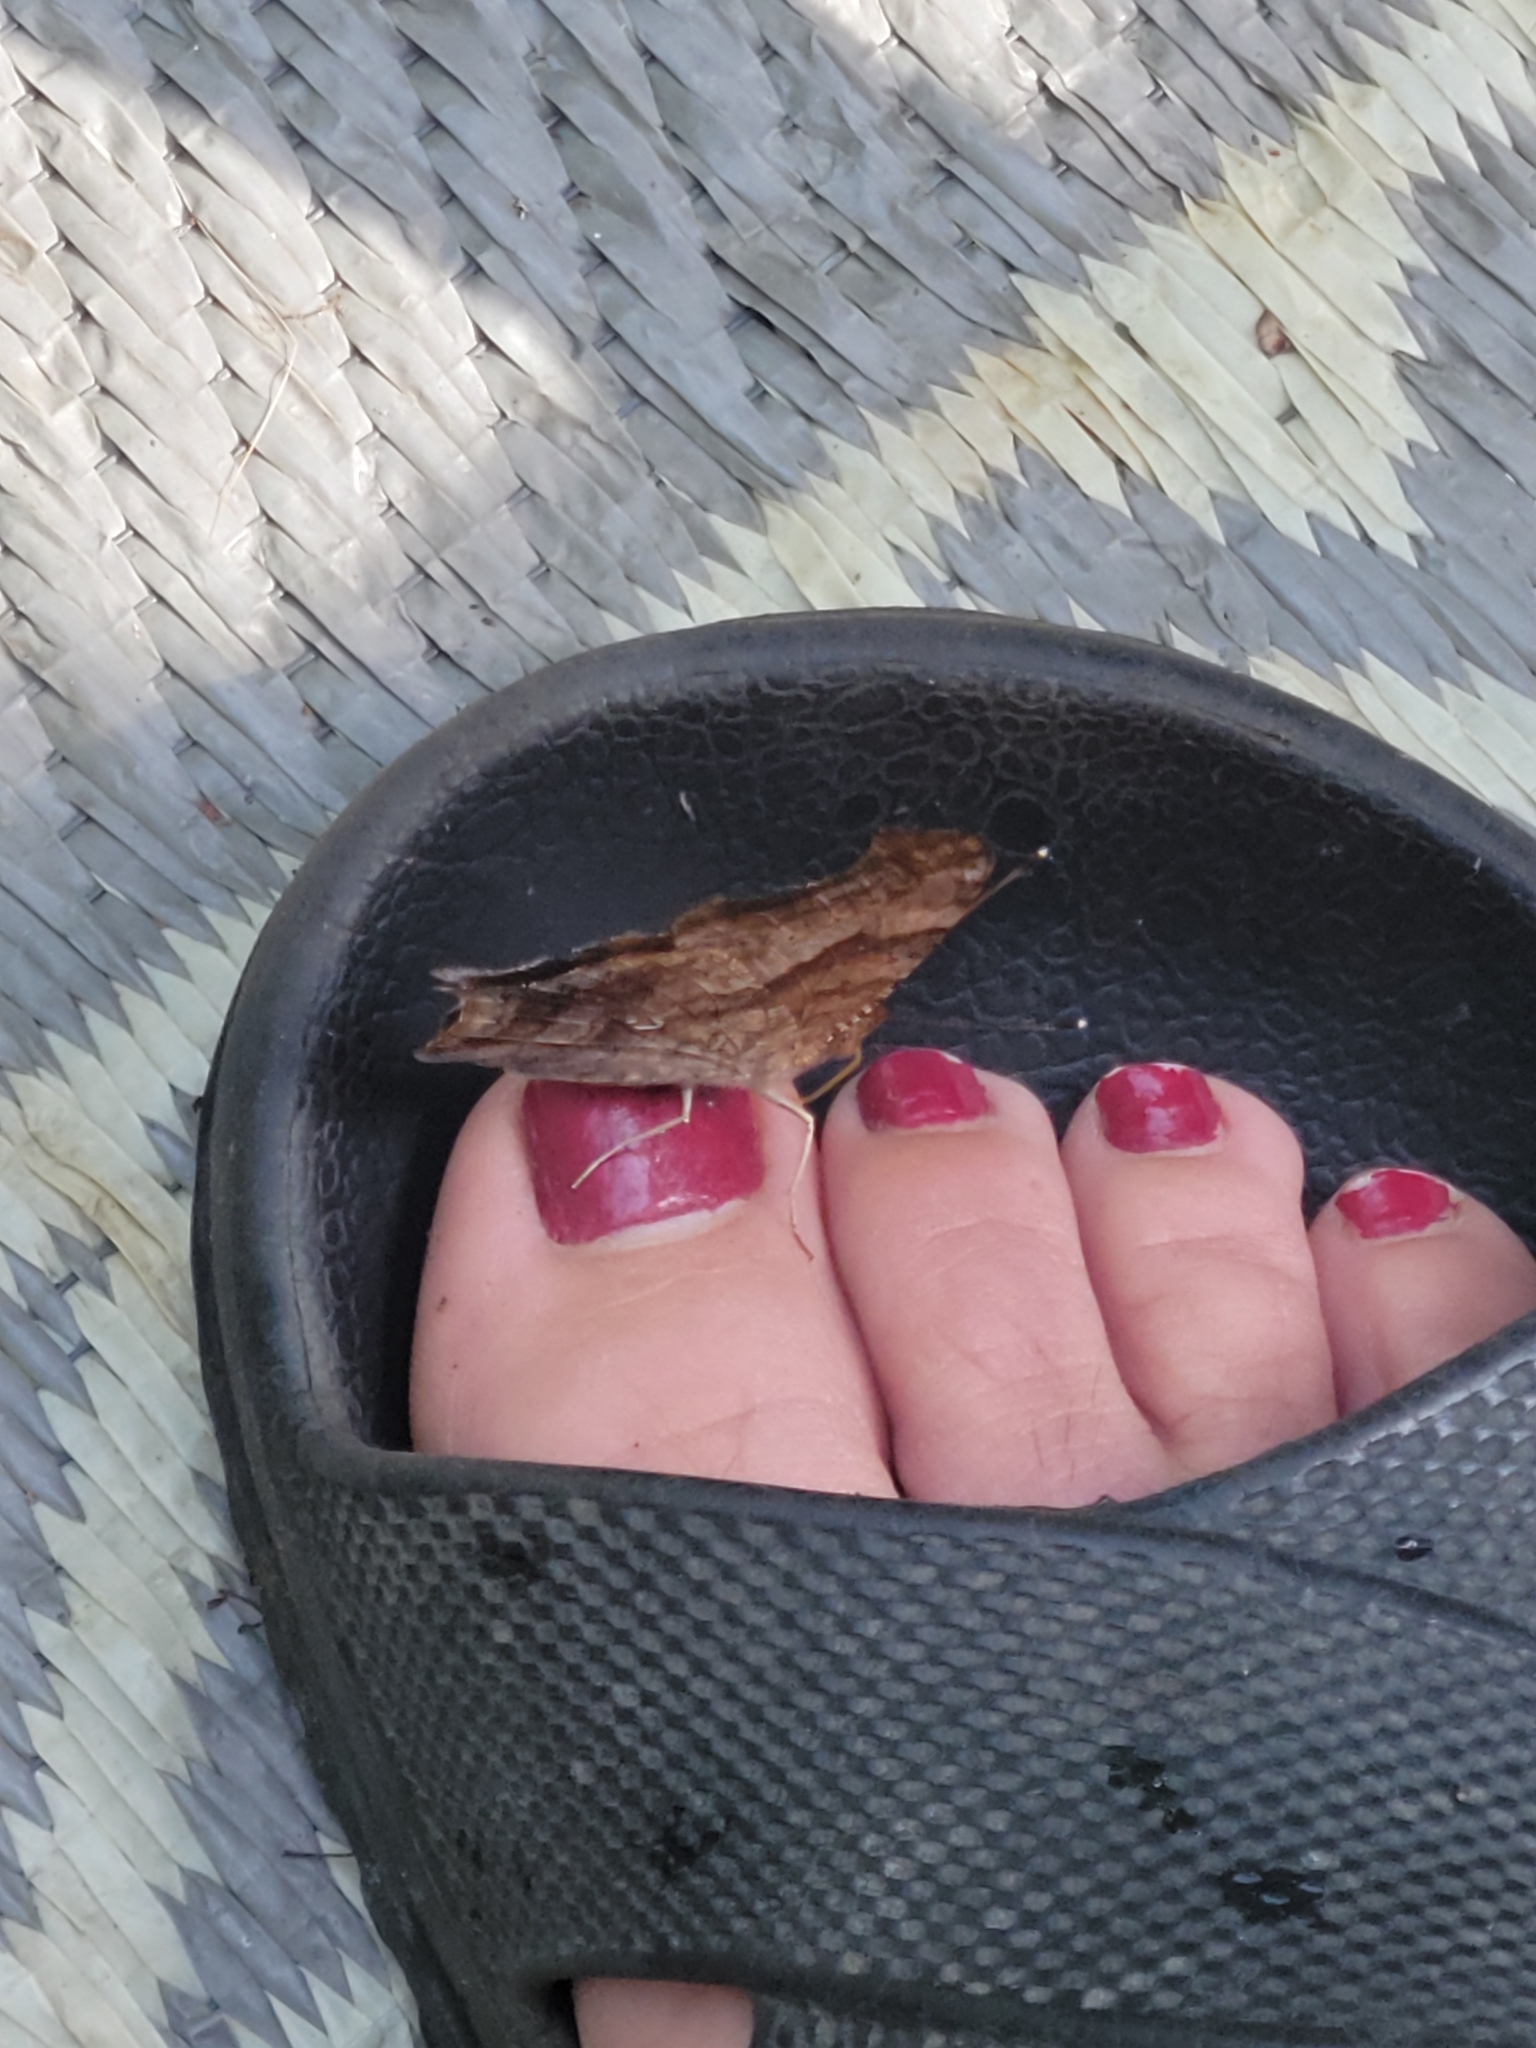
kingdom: Animalia
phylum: Arthropoda
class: Insecta
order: Lepidoptera
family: Nymphalidae
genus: Polygonia
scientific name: Polygonia interrogationis
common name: Question mark
